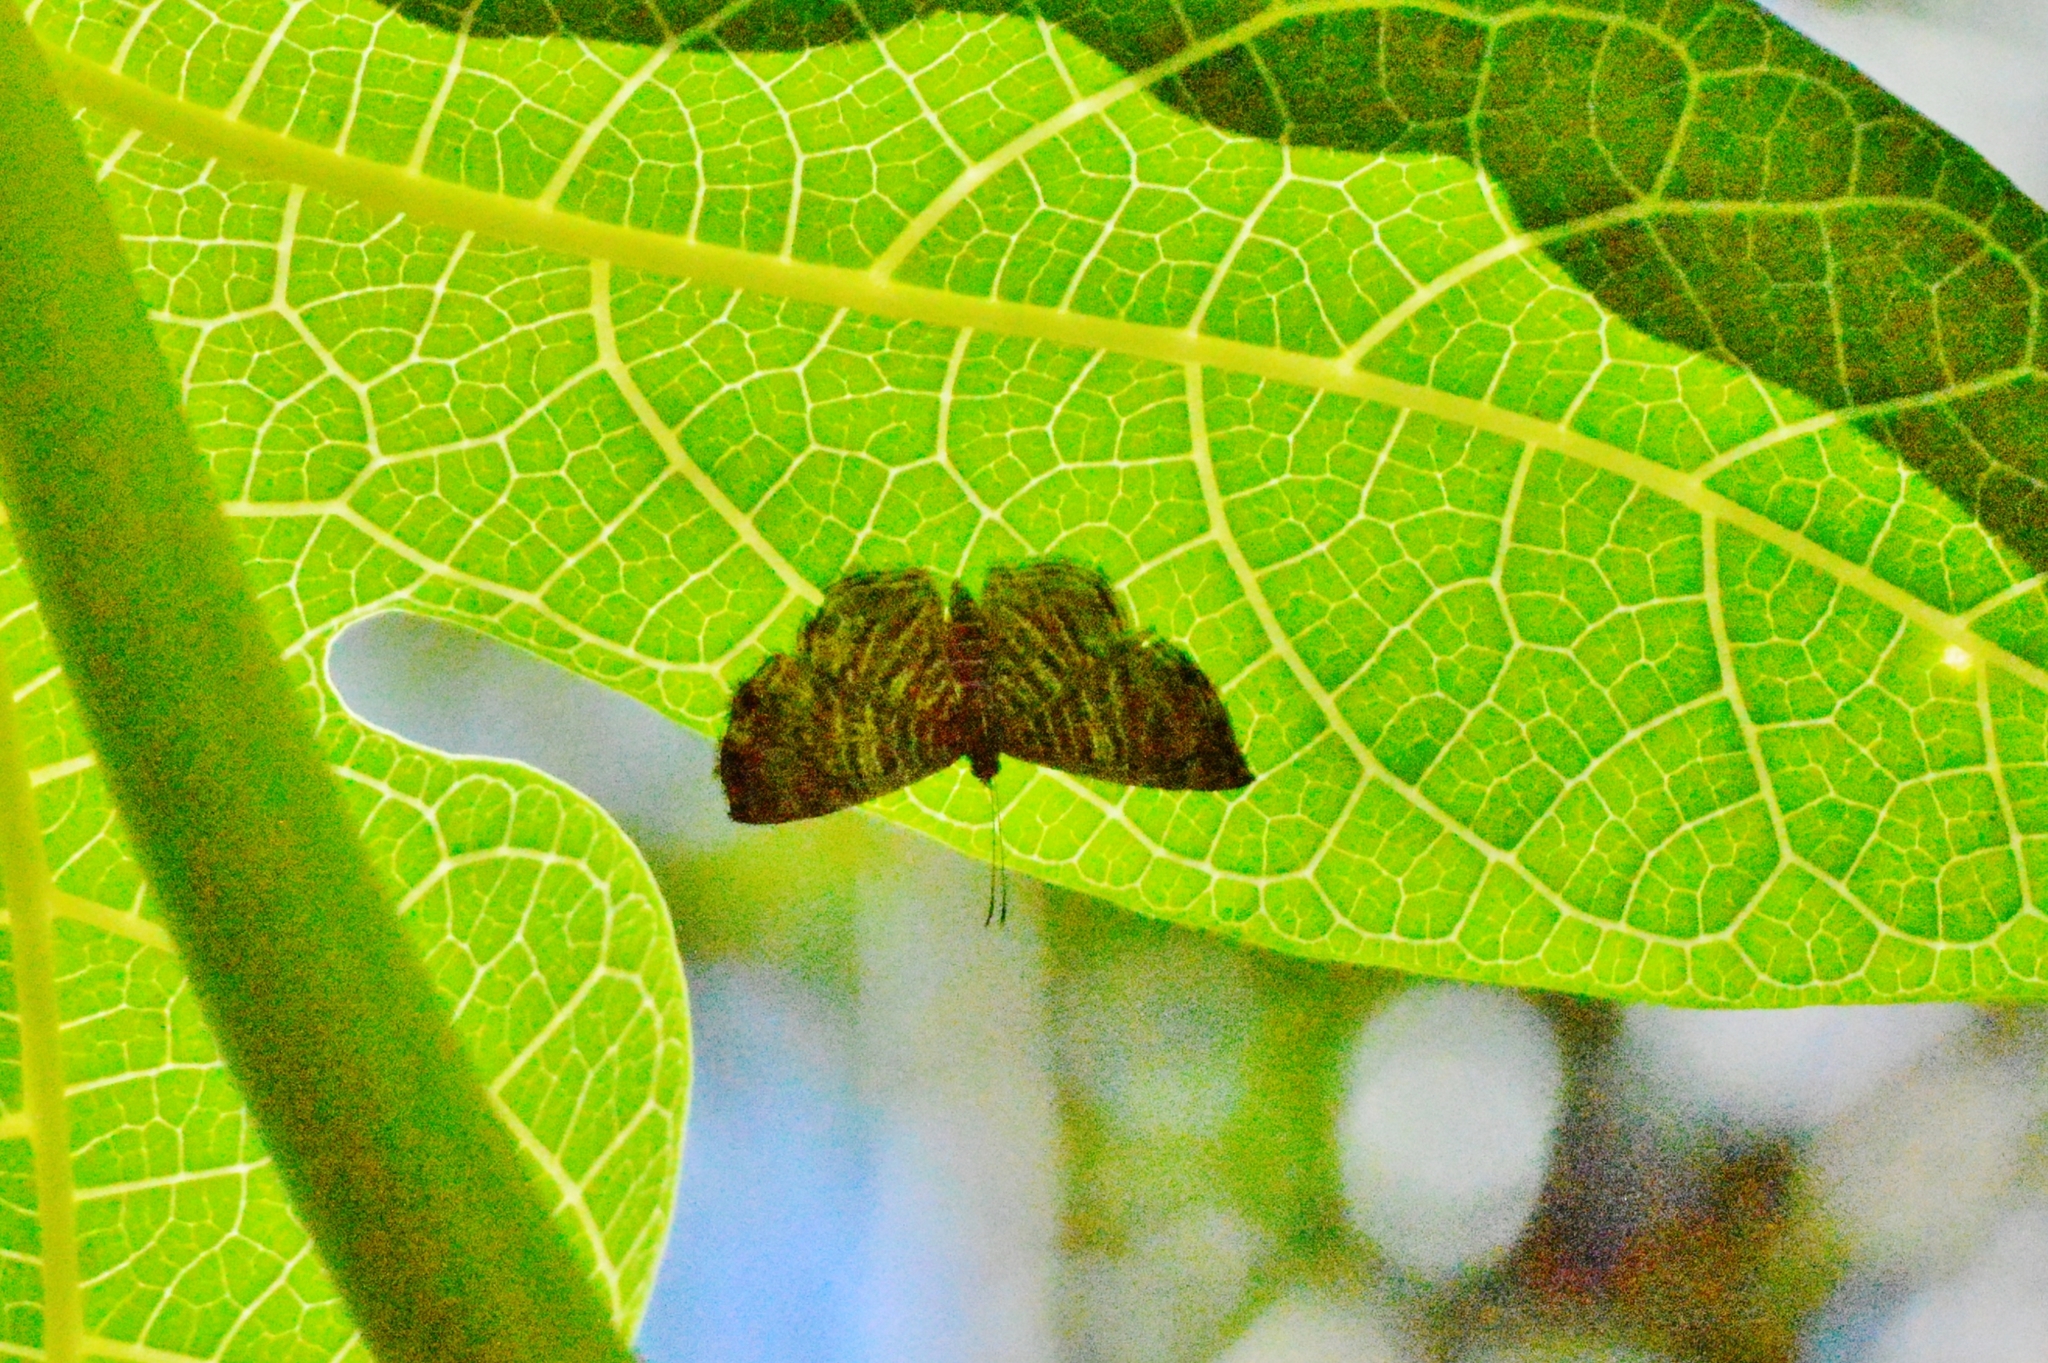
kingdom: Animalia
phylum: Arthropoda
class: Insecta
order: Lepidoptera
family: Riodinidae
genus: Catocyclotis
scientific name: Catocyclotis
